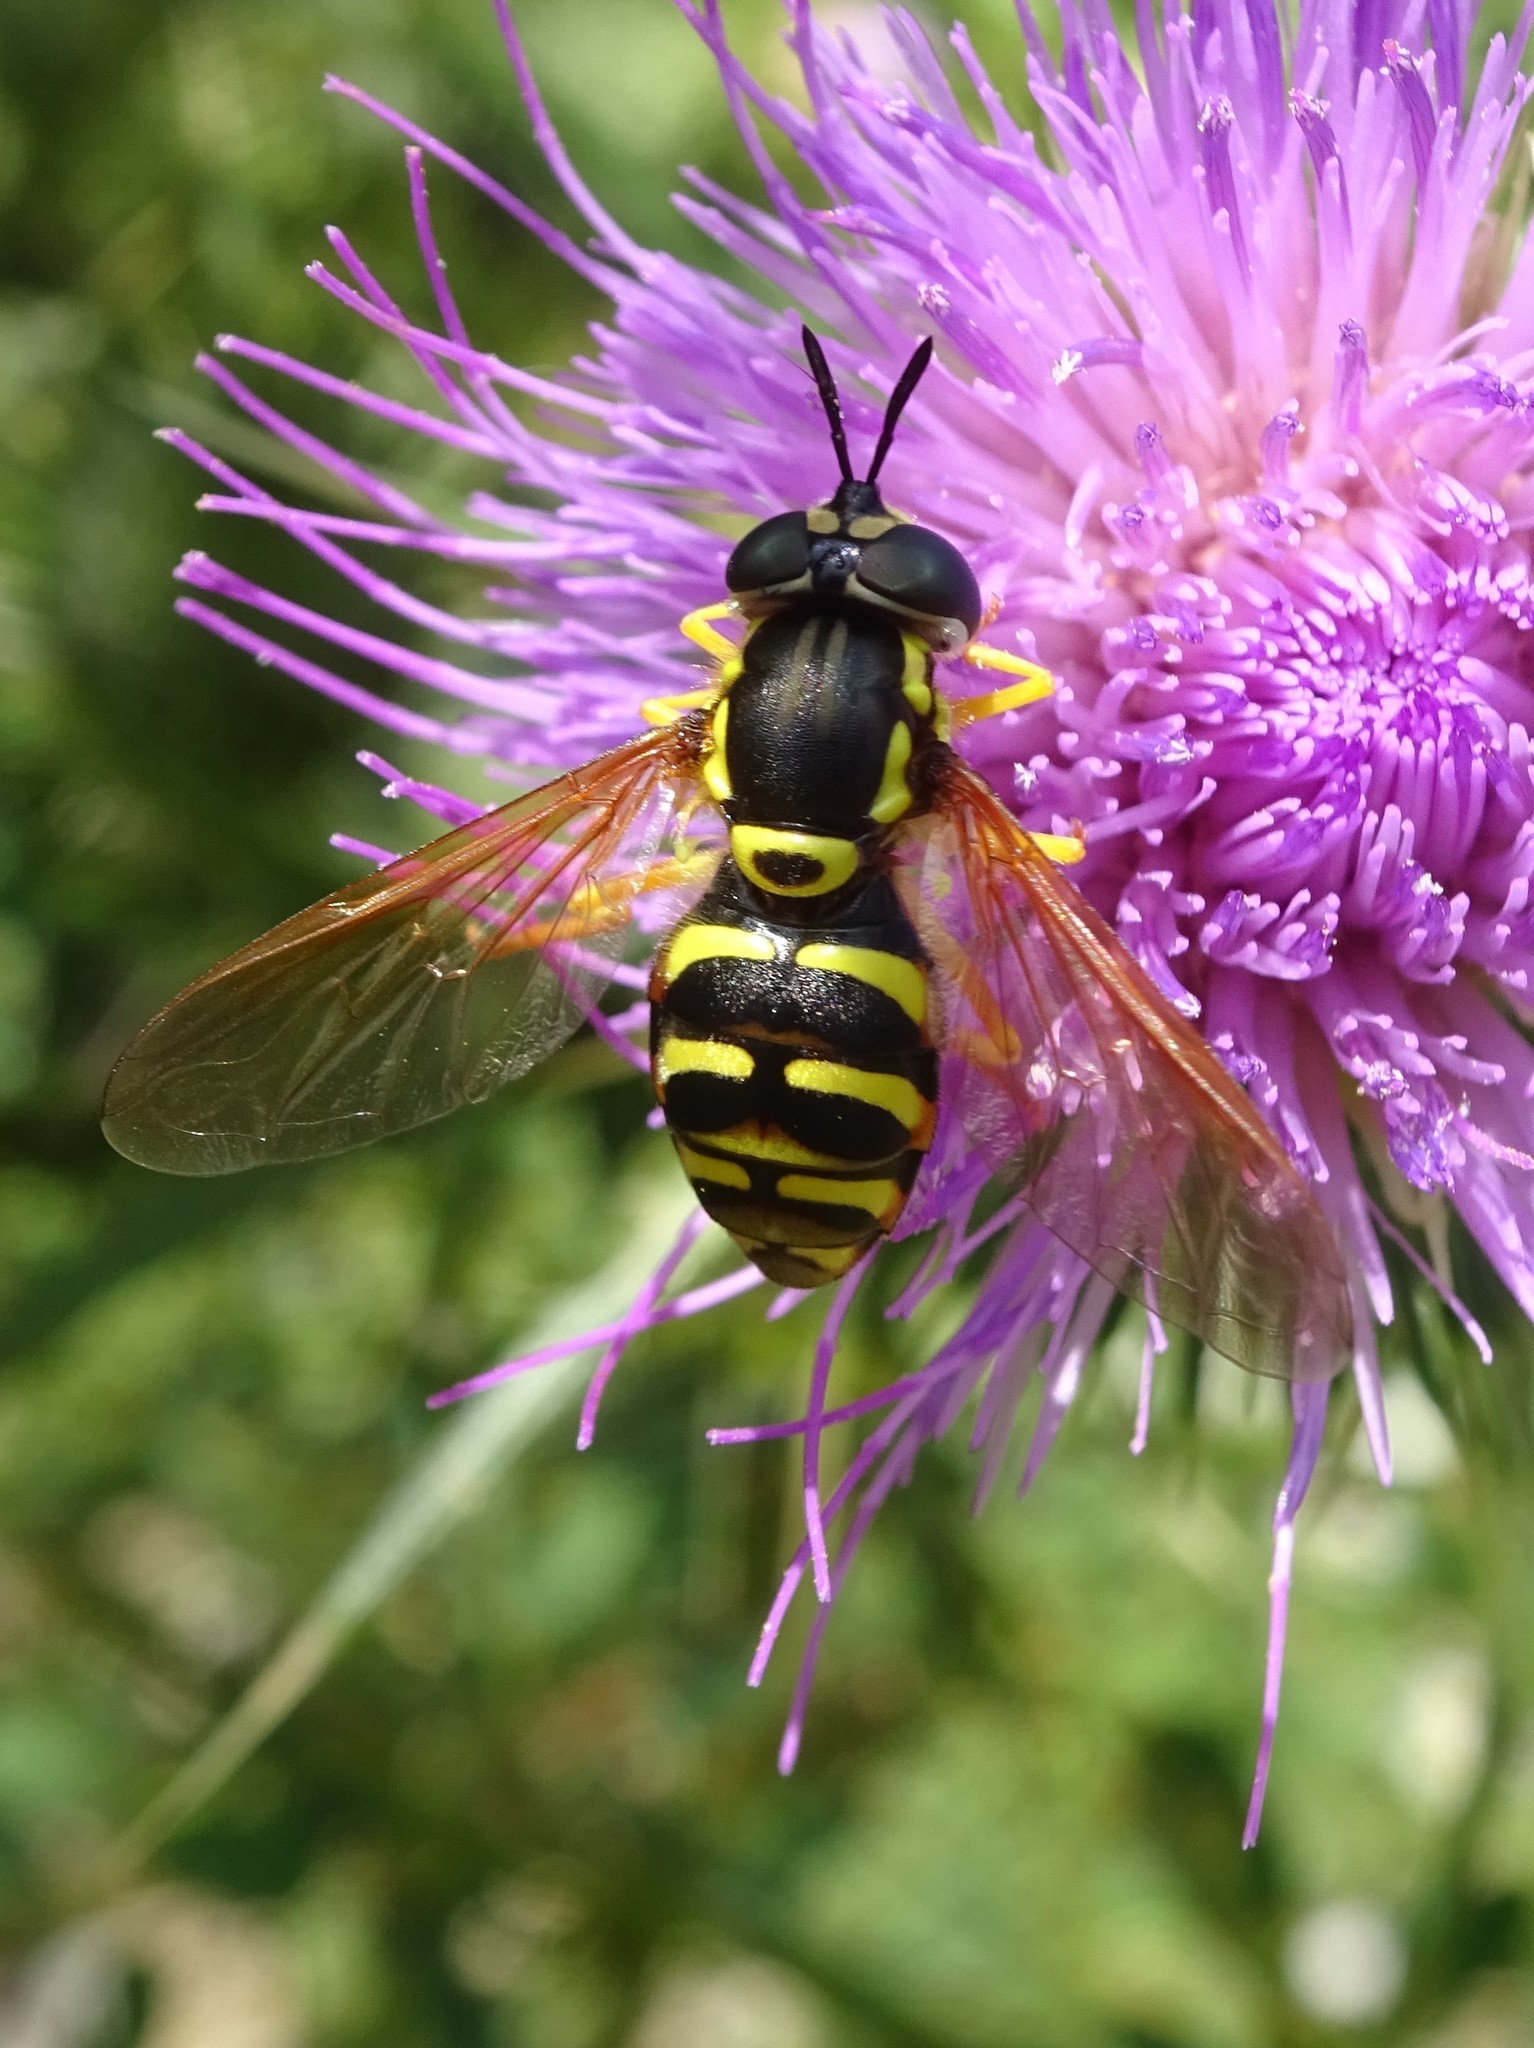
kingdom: Animalia
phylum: Arthropoda
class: Insecta
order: Diptera
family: Syrphidae
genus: Chrysotoxum
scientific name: Chrysotoxum elegans
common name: Zipperback
